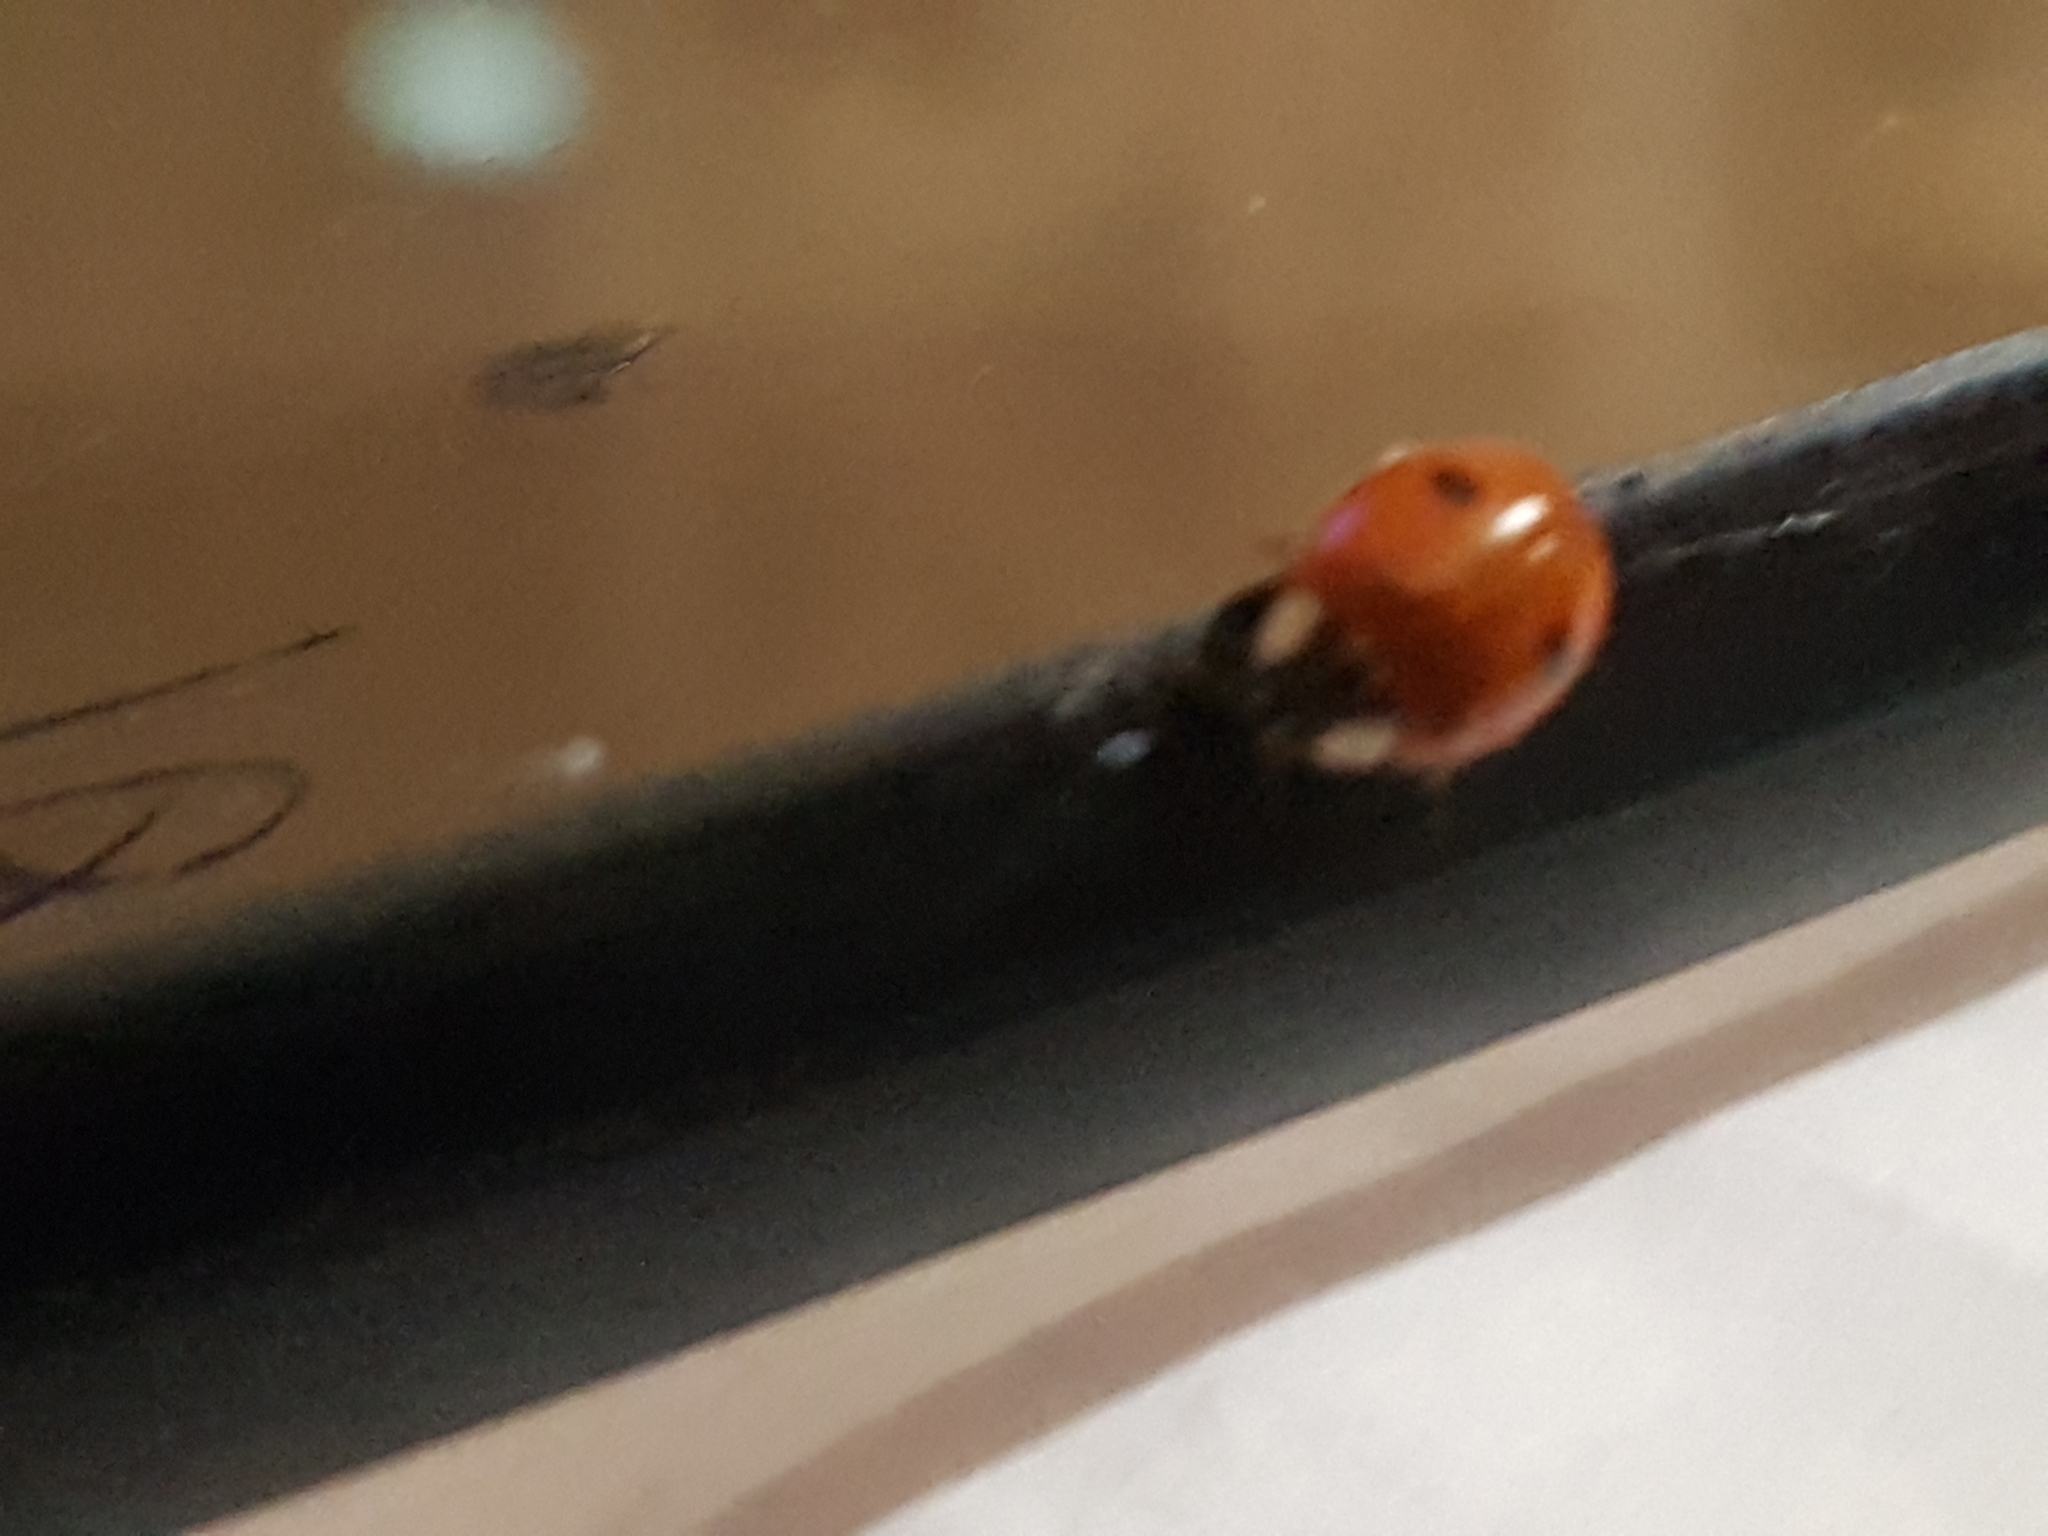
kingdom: Animalia
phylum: Arthropoda
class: Insecta
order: Coleoptera
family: Coccinellidae
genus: Adalia
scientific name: Adalia bipunctata
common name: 2-spot ladybird
